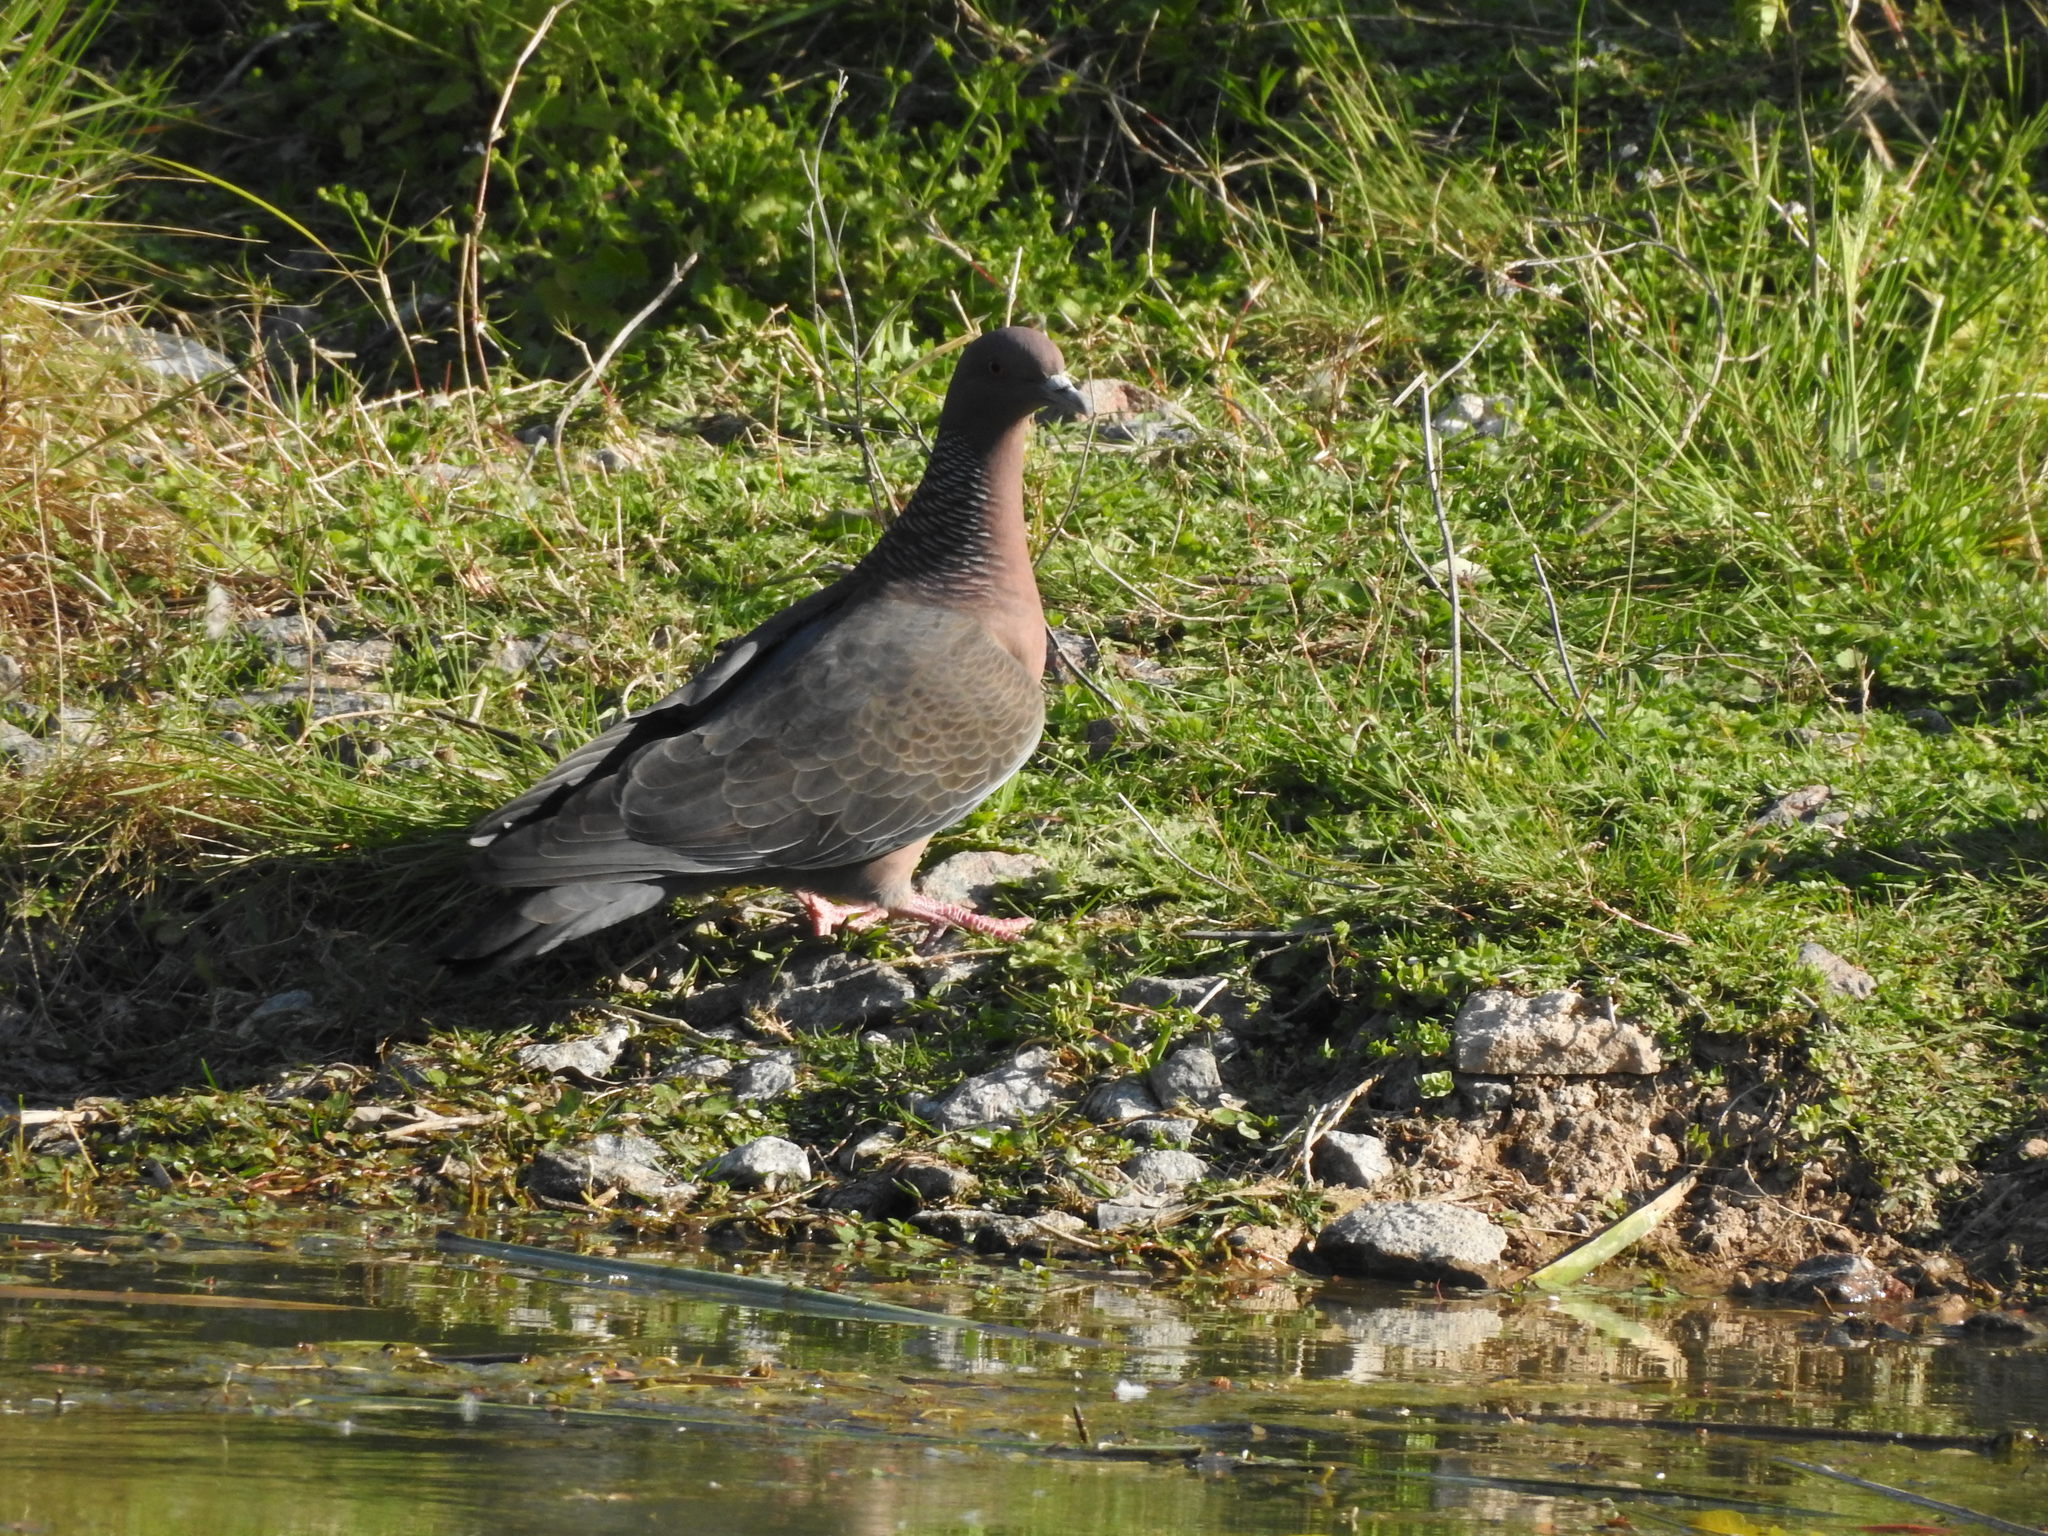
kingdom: Animalia
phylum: Chordata
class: Aves
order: Columbiformes
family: Columbidae
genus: Patagioenas
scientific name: Patagioenas picazuro
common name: Picazuro pigeon
